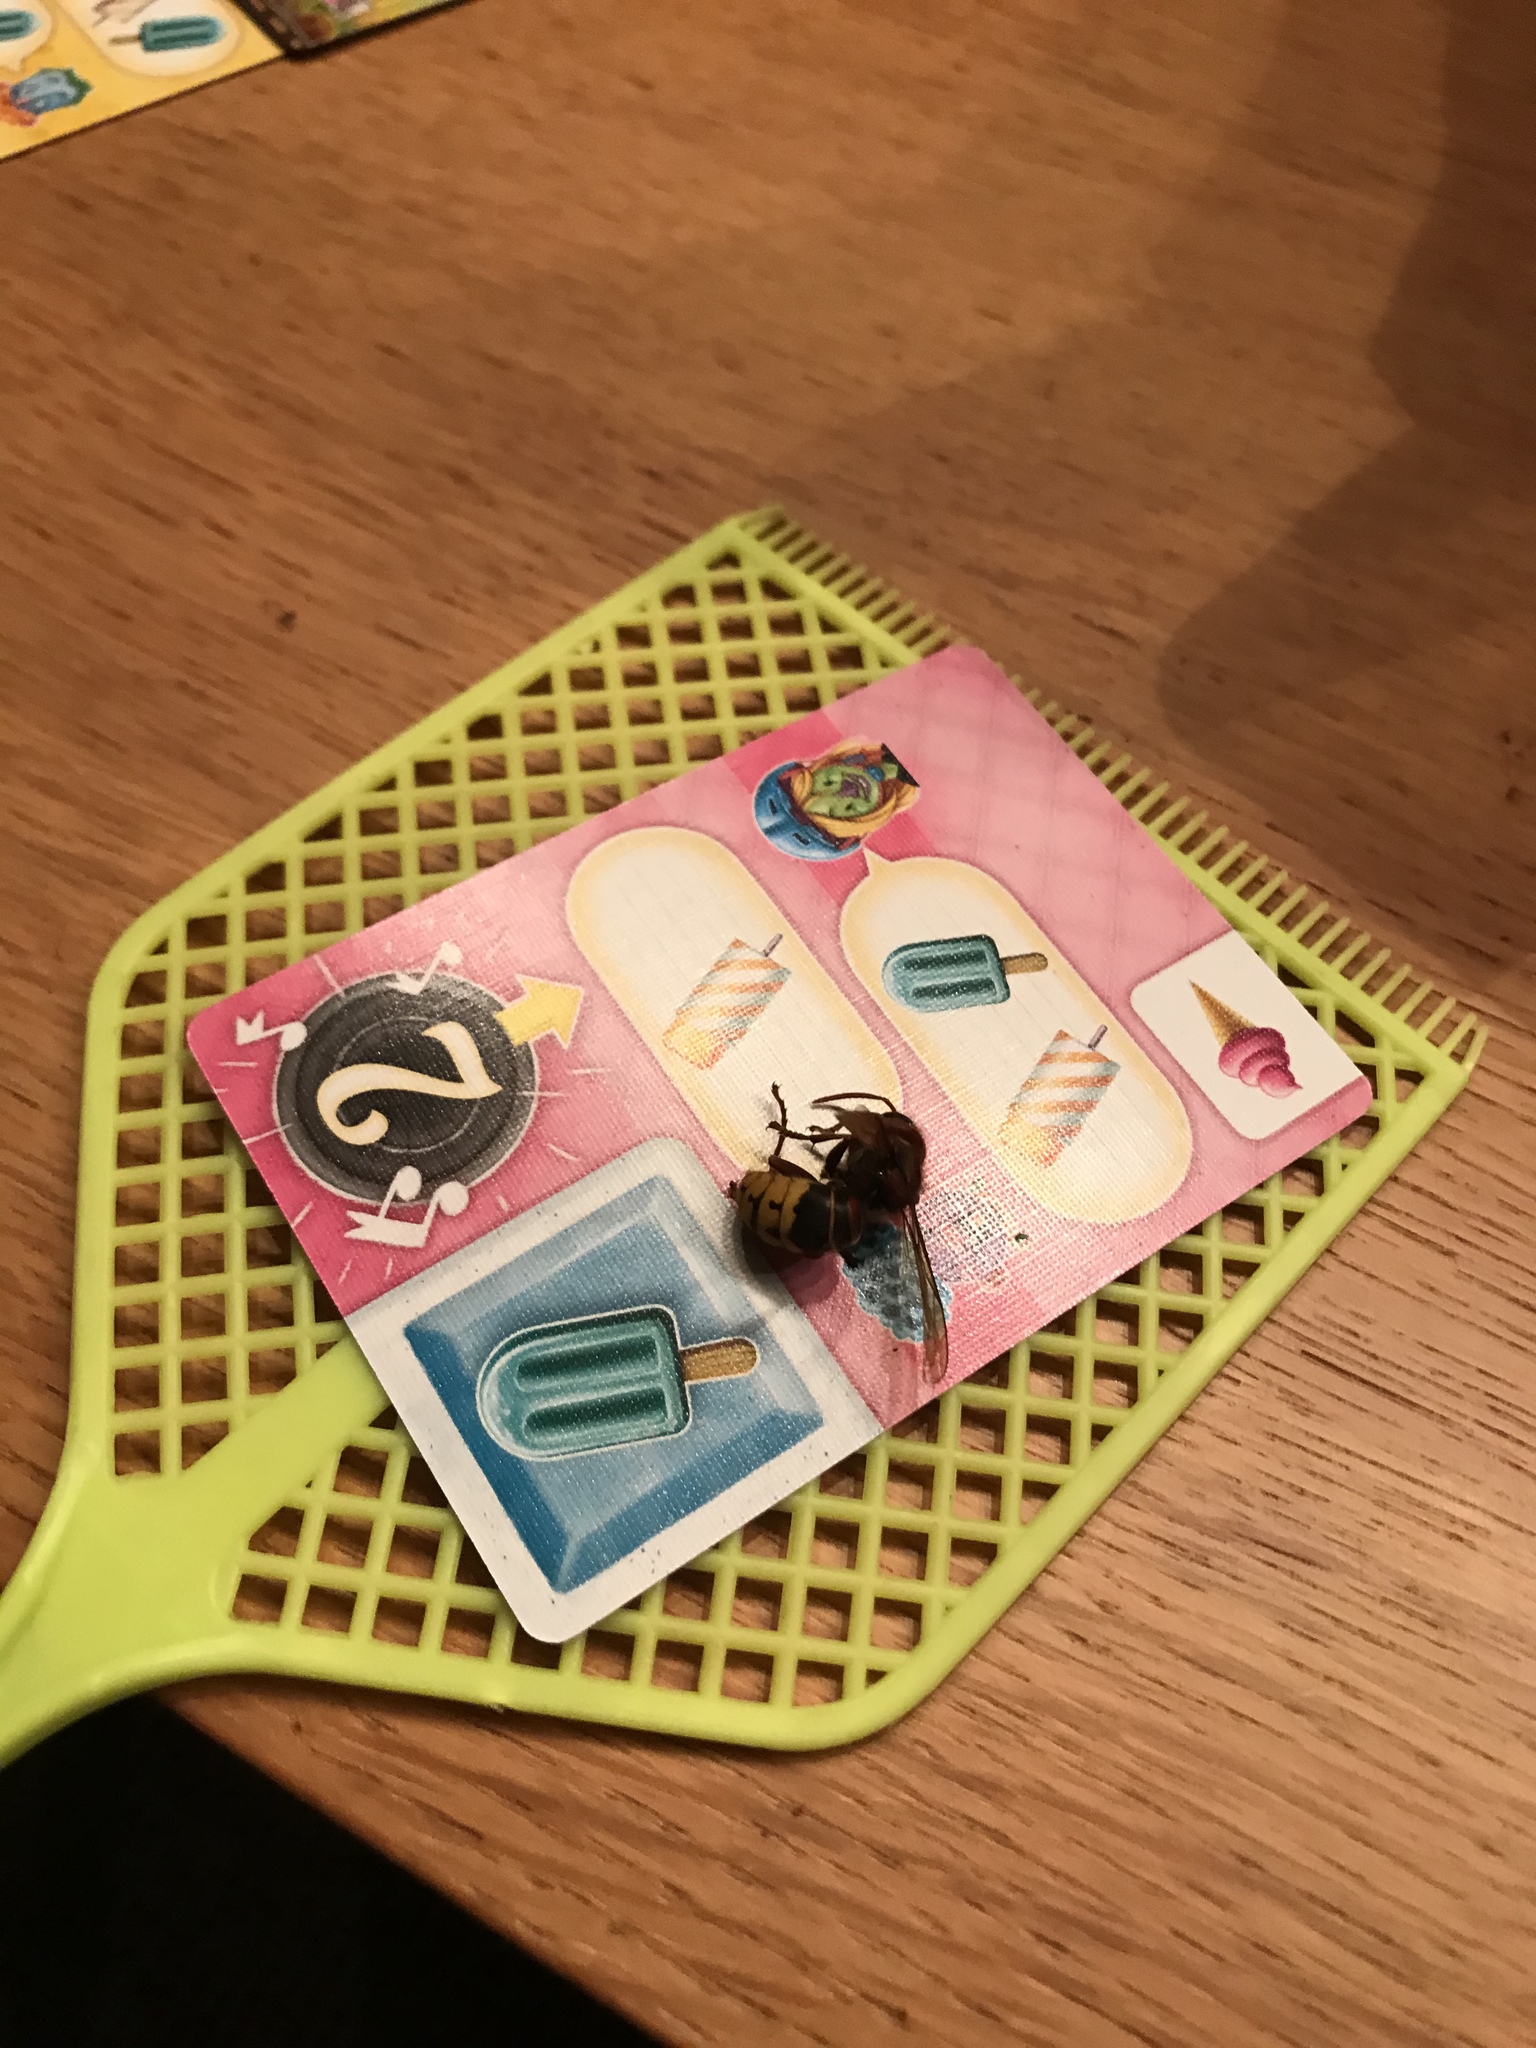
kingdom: Animalia
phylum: Arthropoda
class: Insecta
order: Hymenoptera
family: Vespidae
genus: Vespa
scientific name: Vespa crabro
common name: Hornet
